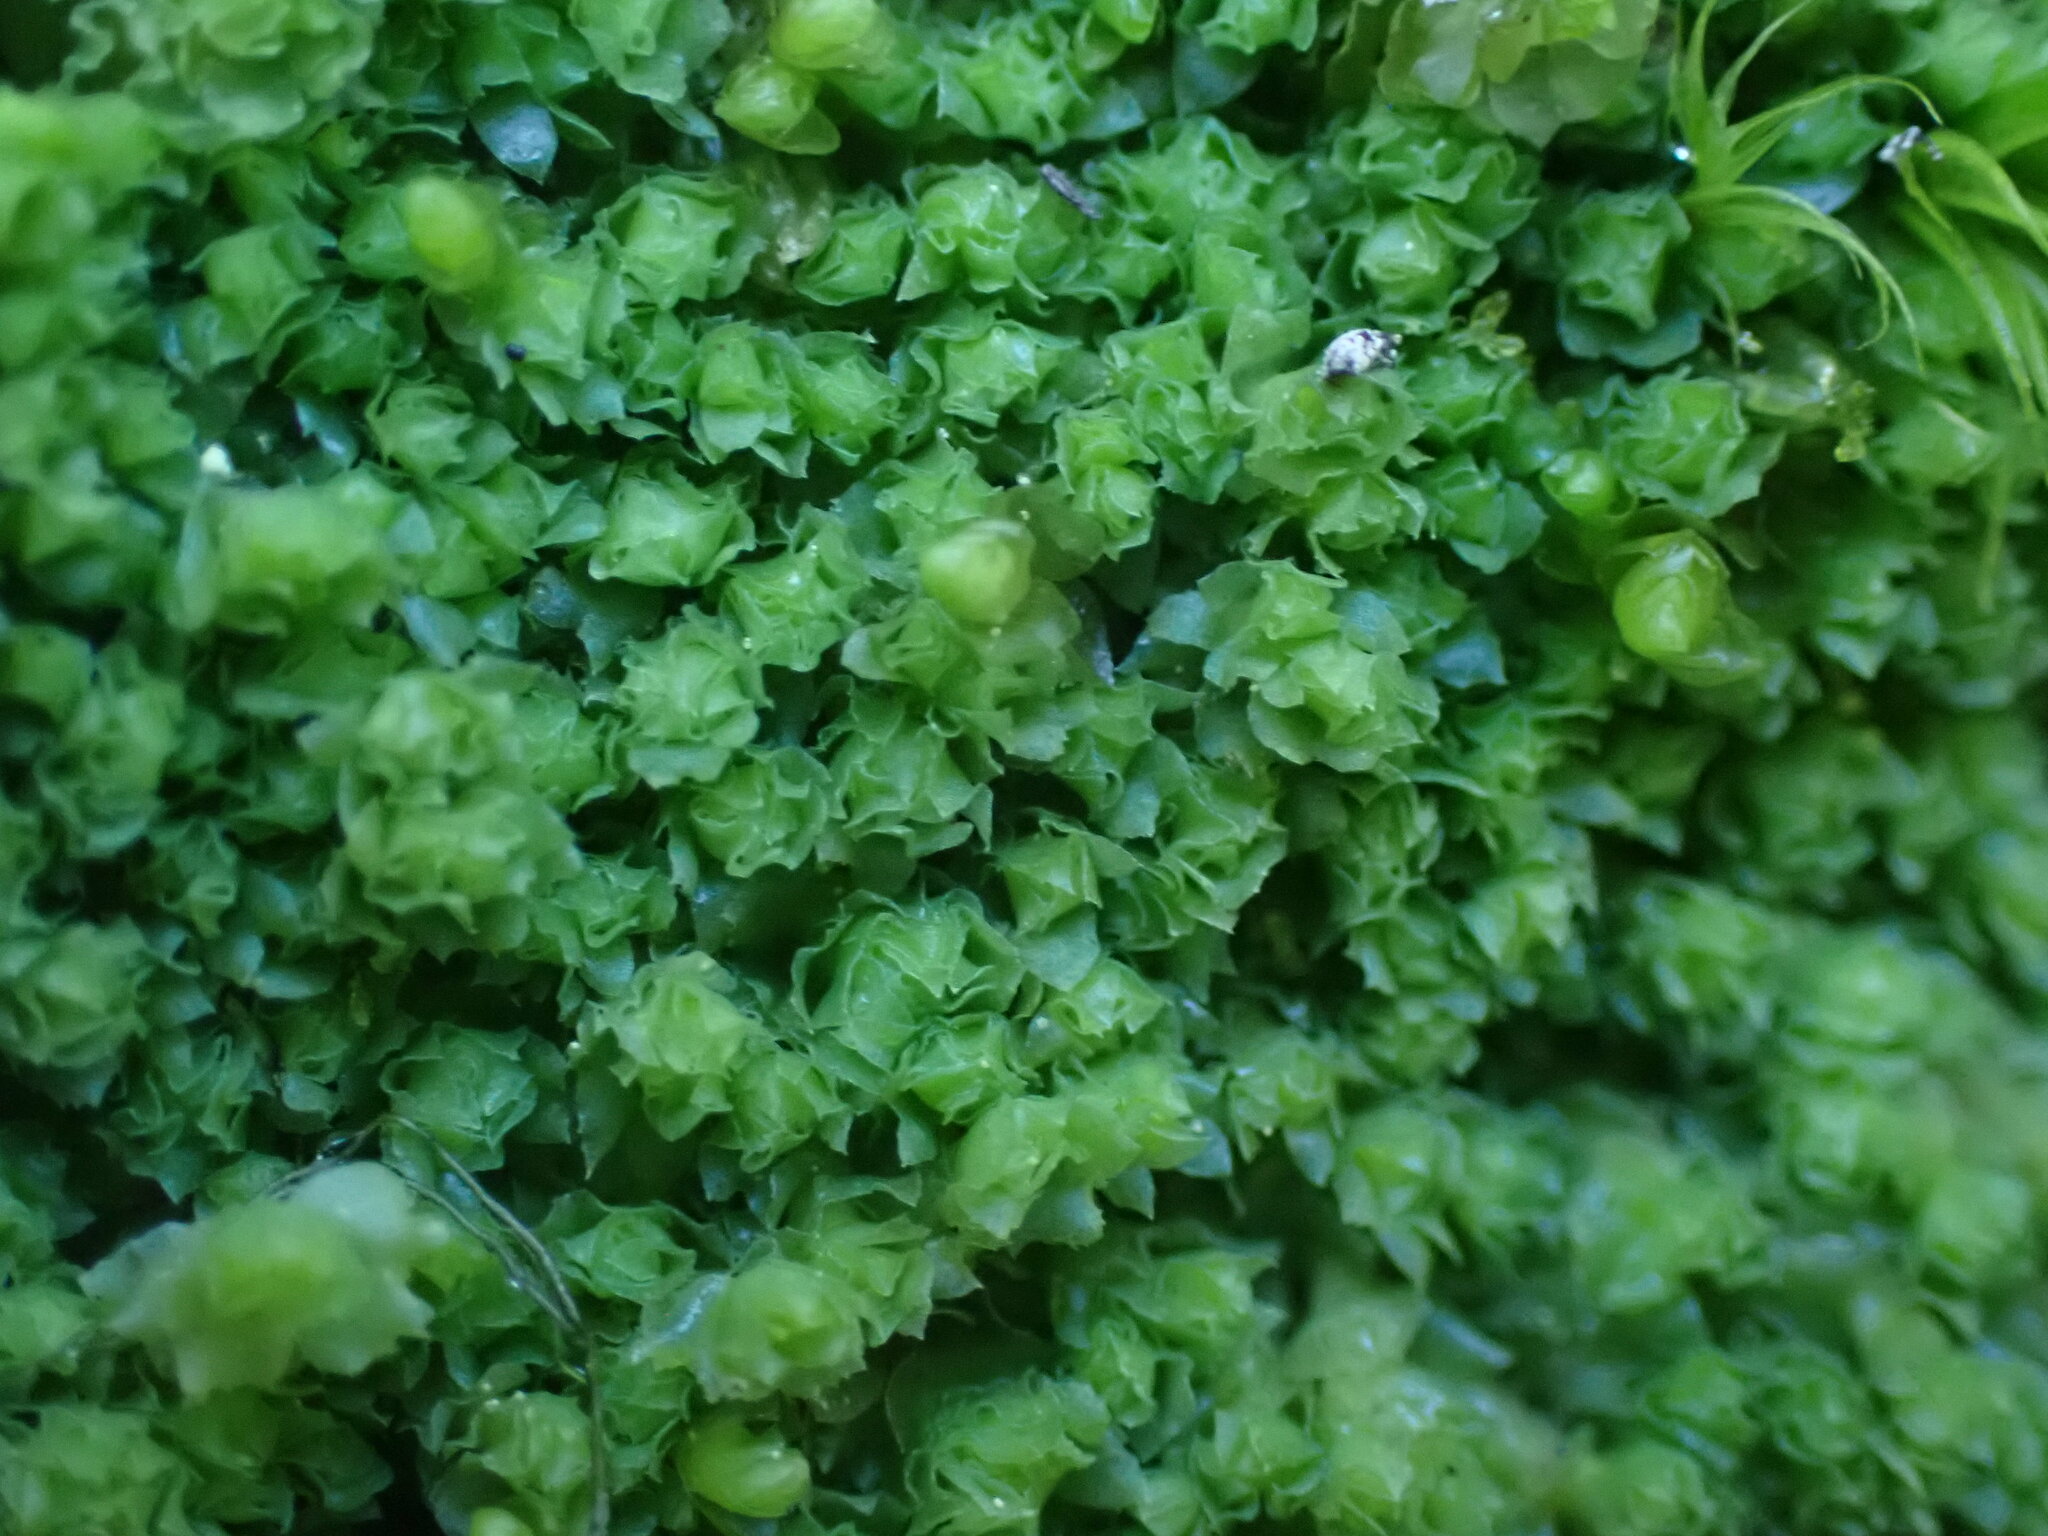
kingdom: Plantae
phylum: Marchantiophyta
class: Jungermanniopsida
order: Jungermanniales
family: Scapaniaceae
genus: Schistochilopsis
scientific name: Schistochilopsis incisa
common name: Jagged notchwort
